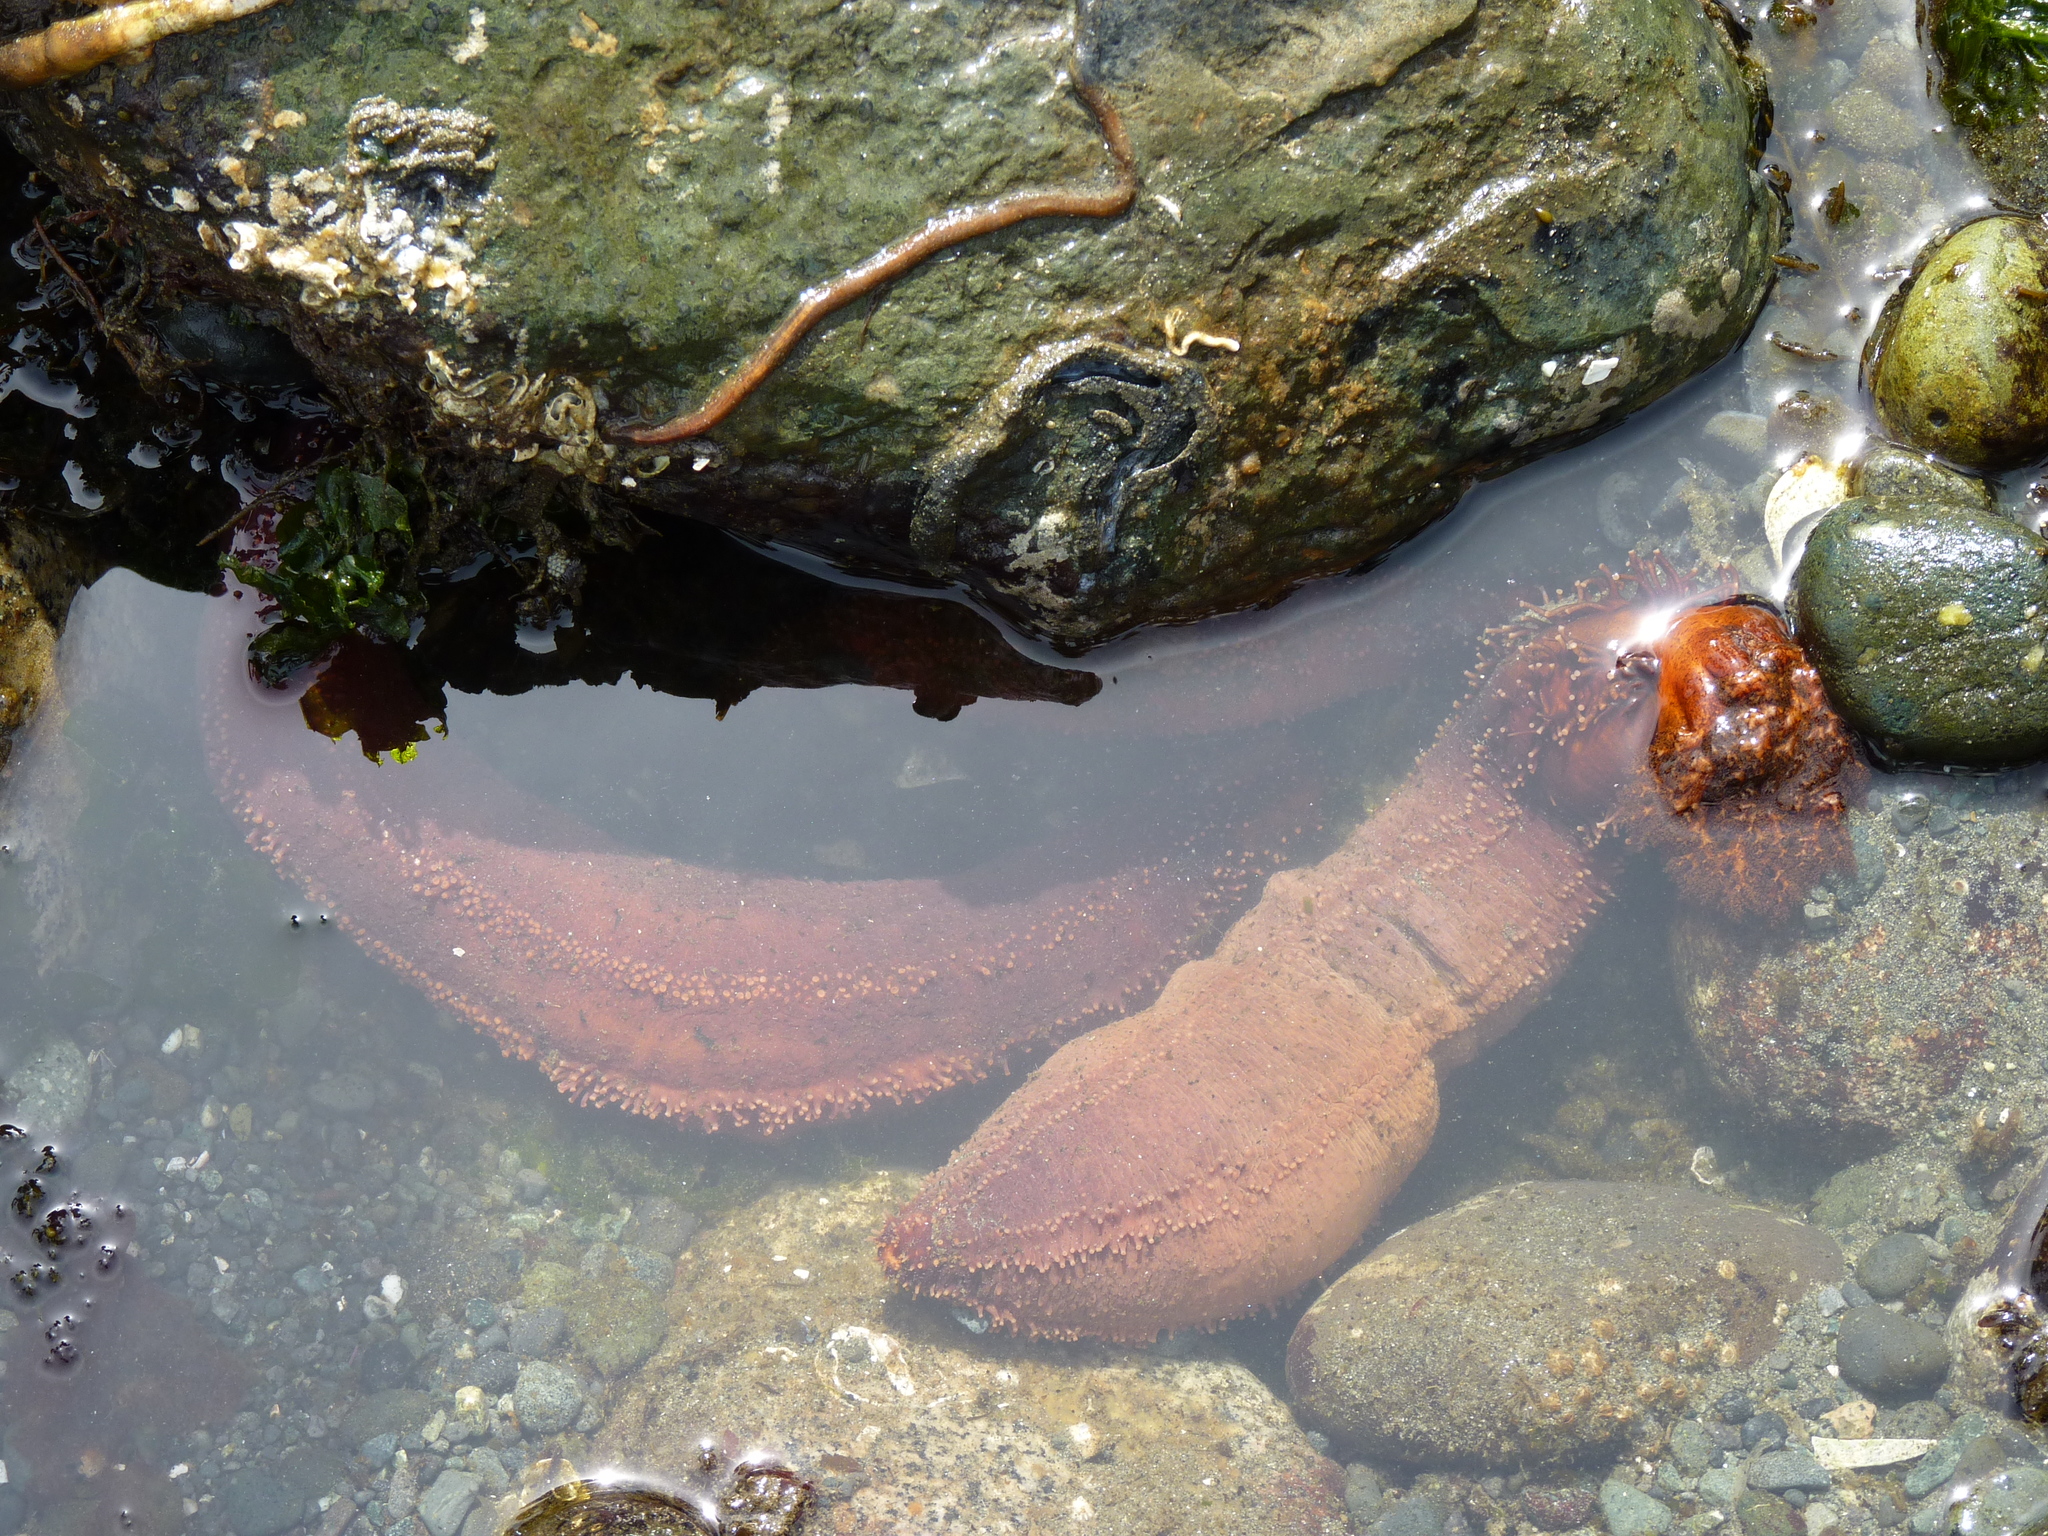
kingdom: Animalia
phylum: Echinodermata
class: Holothuroidea
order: Dendrochirotida
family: Cucumariidae
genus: Cucumaria
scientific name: Cucumaria miniata
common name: Orange sea cucumber
